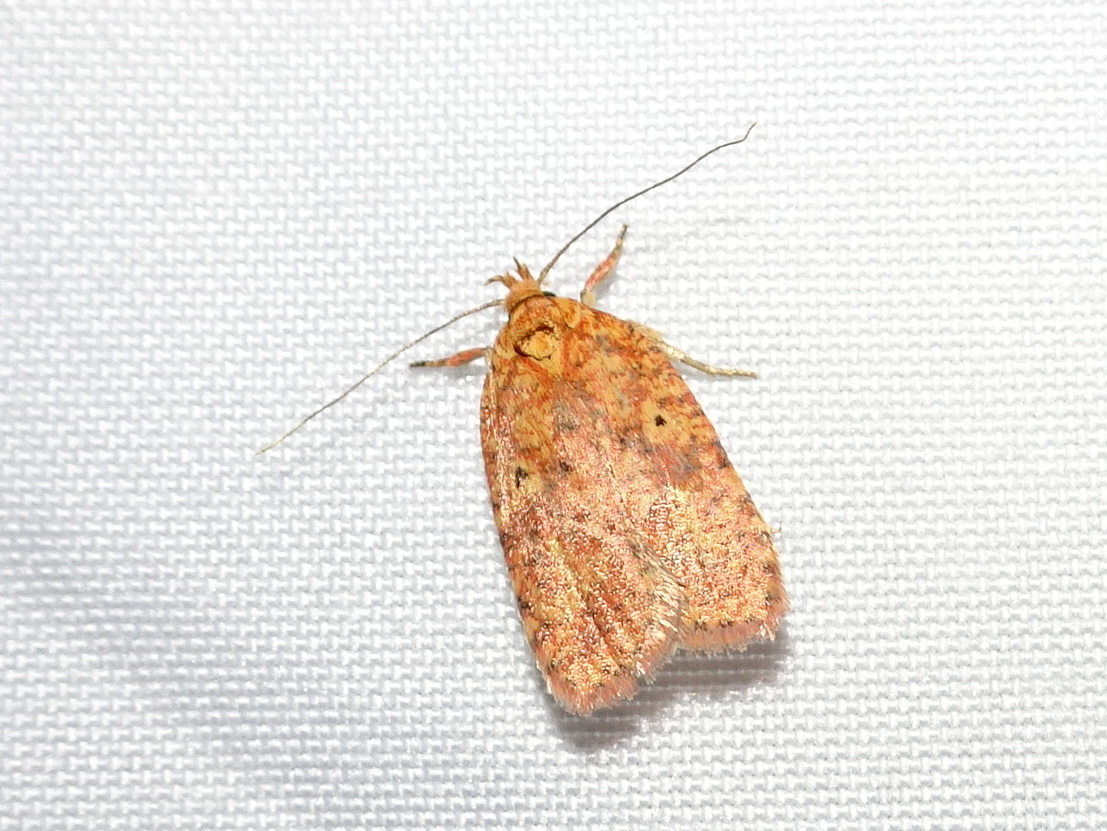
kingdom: Animalia
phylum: Arthropoda
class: Insecta
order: Lepidoptera
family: Depressariidae
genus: Agonopterix
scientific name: Agonopterix robiniella
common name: Four-dotted agonopterix moth
